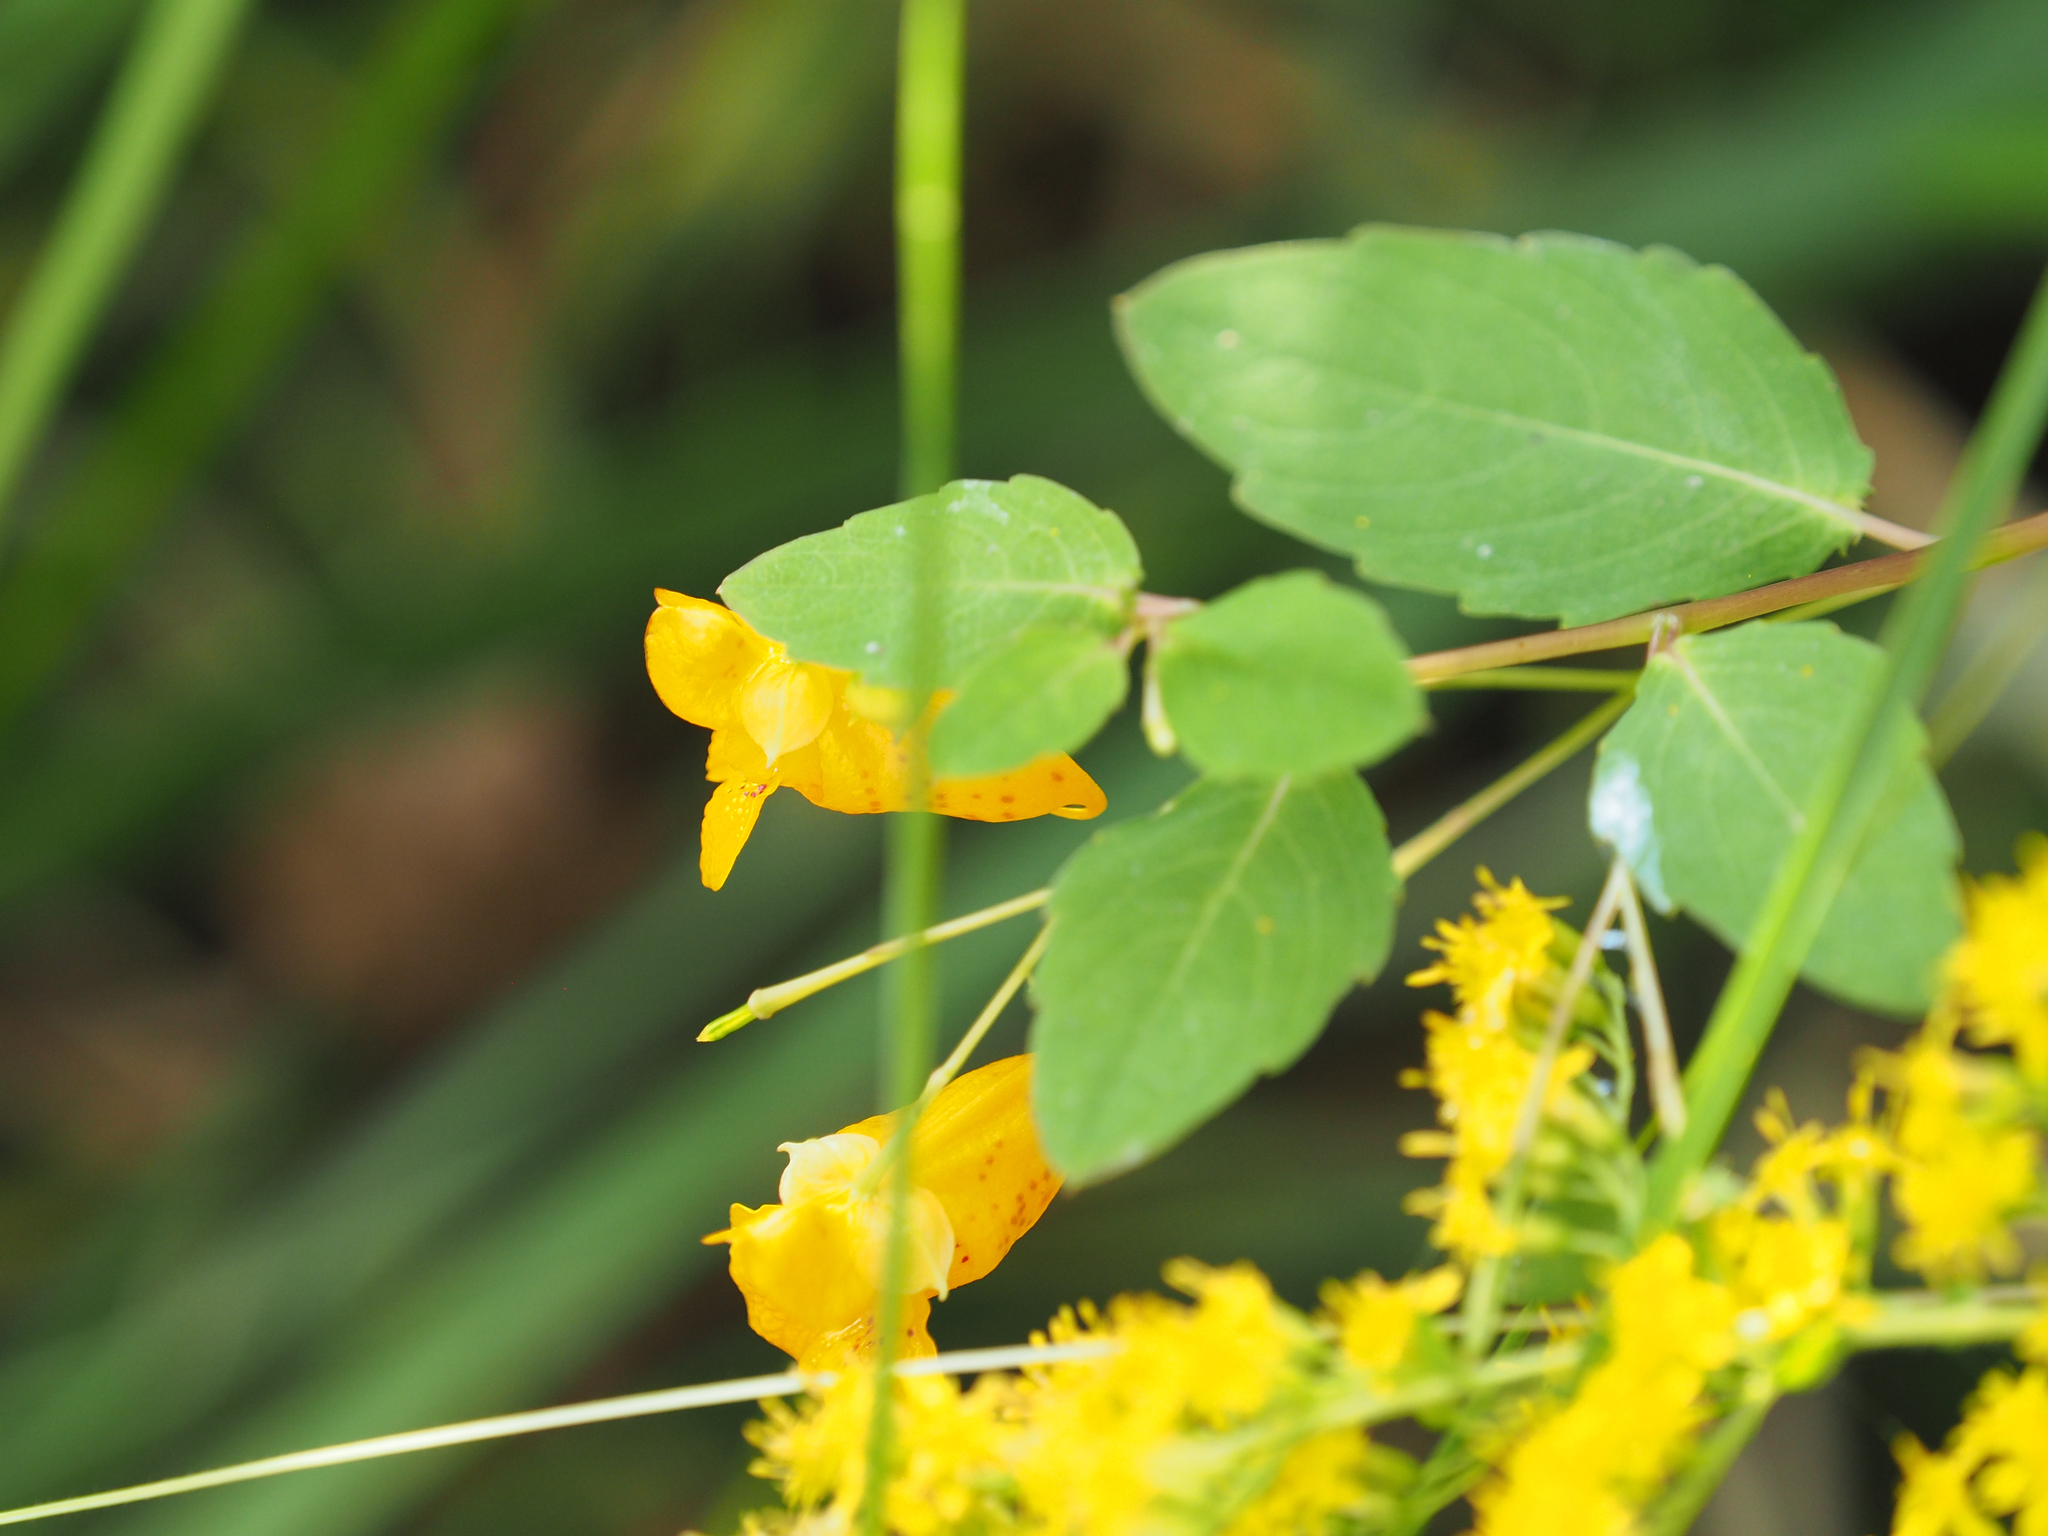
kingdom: Plantae
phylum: Tracheophyta
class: Magnoliopsida
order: Ericales
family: Balsaminaceae
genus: Impatiens
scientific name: Impatiens capensis
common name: Orange balsam
